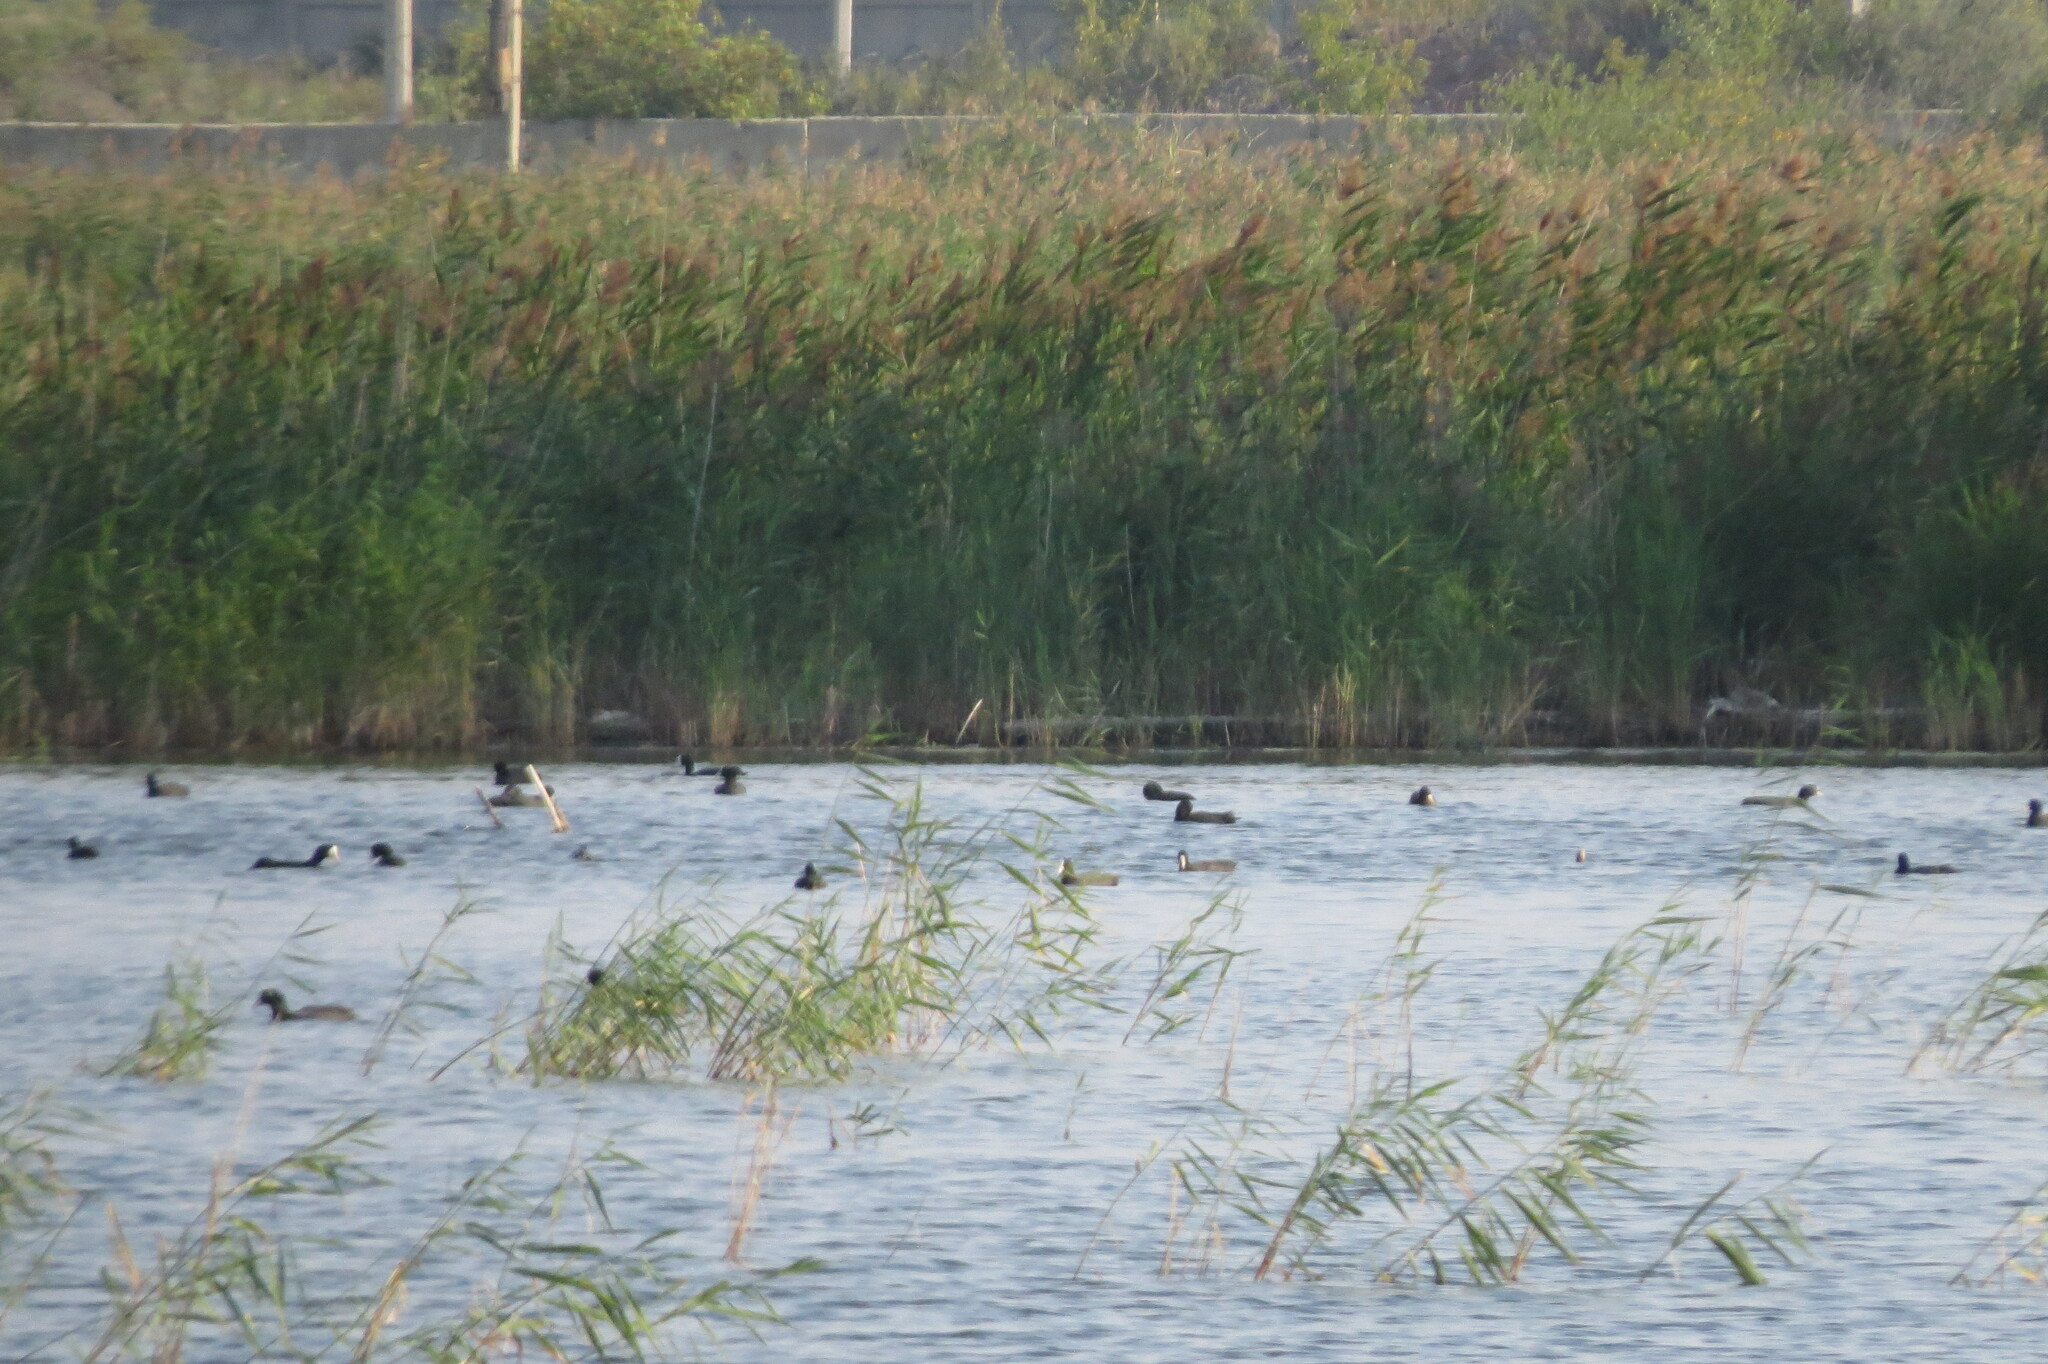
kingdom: Animalia
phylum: Chordata
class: Aves
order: Gruiformes
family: Rallidae
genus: Fulica
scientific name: Fulica atra
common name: Eurasian coot
